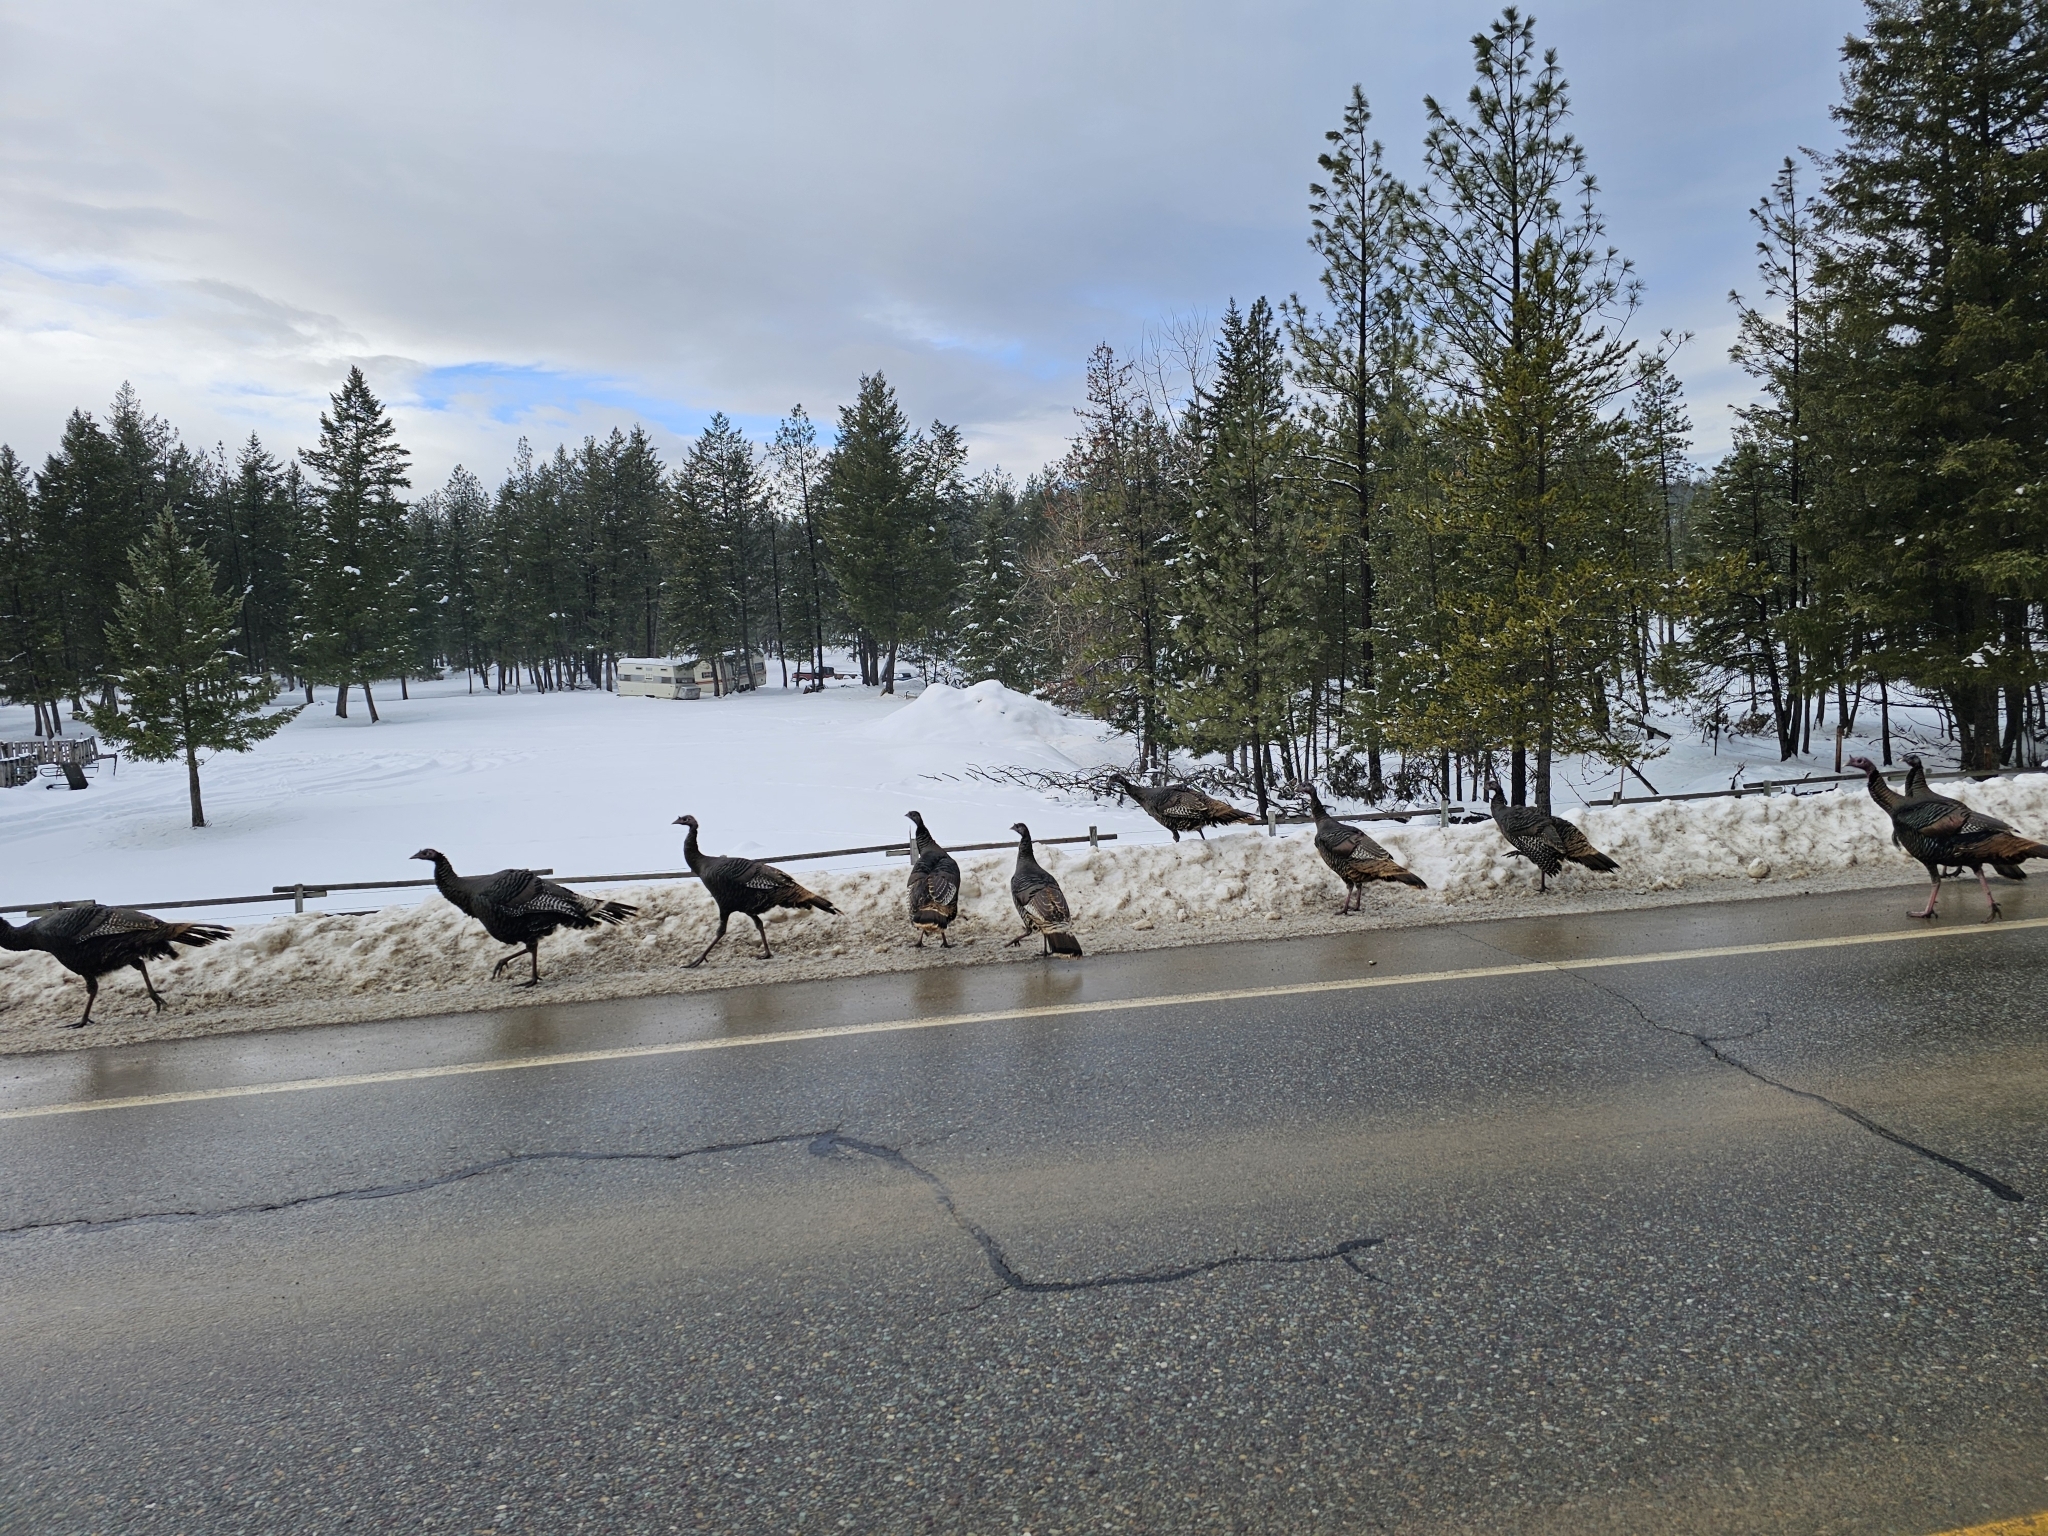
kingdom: Animalia
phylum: Chordata
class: Aves
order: Galliformes
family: Phasianidae
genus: Meleagris
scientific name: Meleagris gallopavo
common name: Wild turkey
